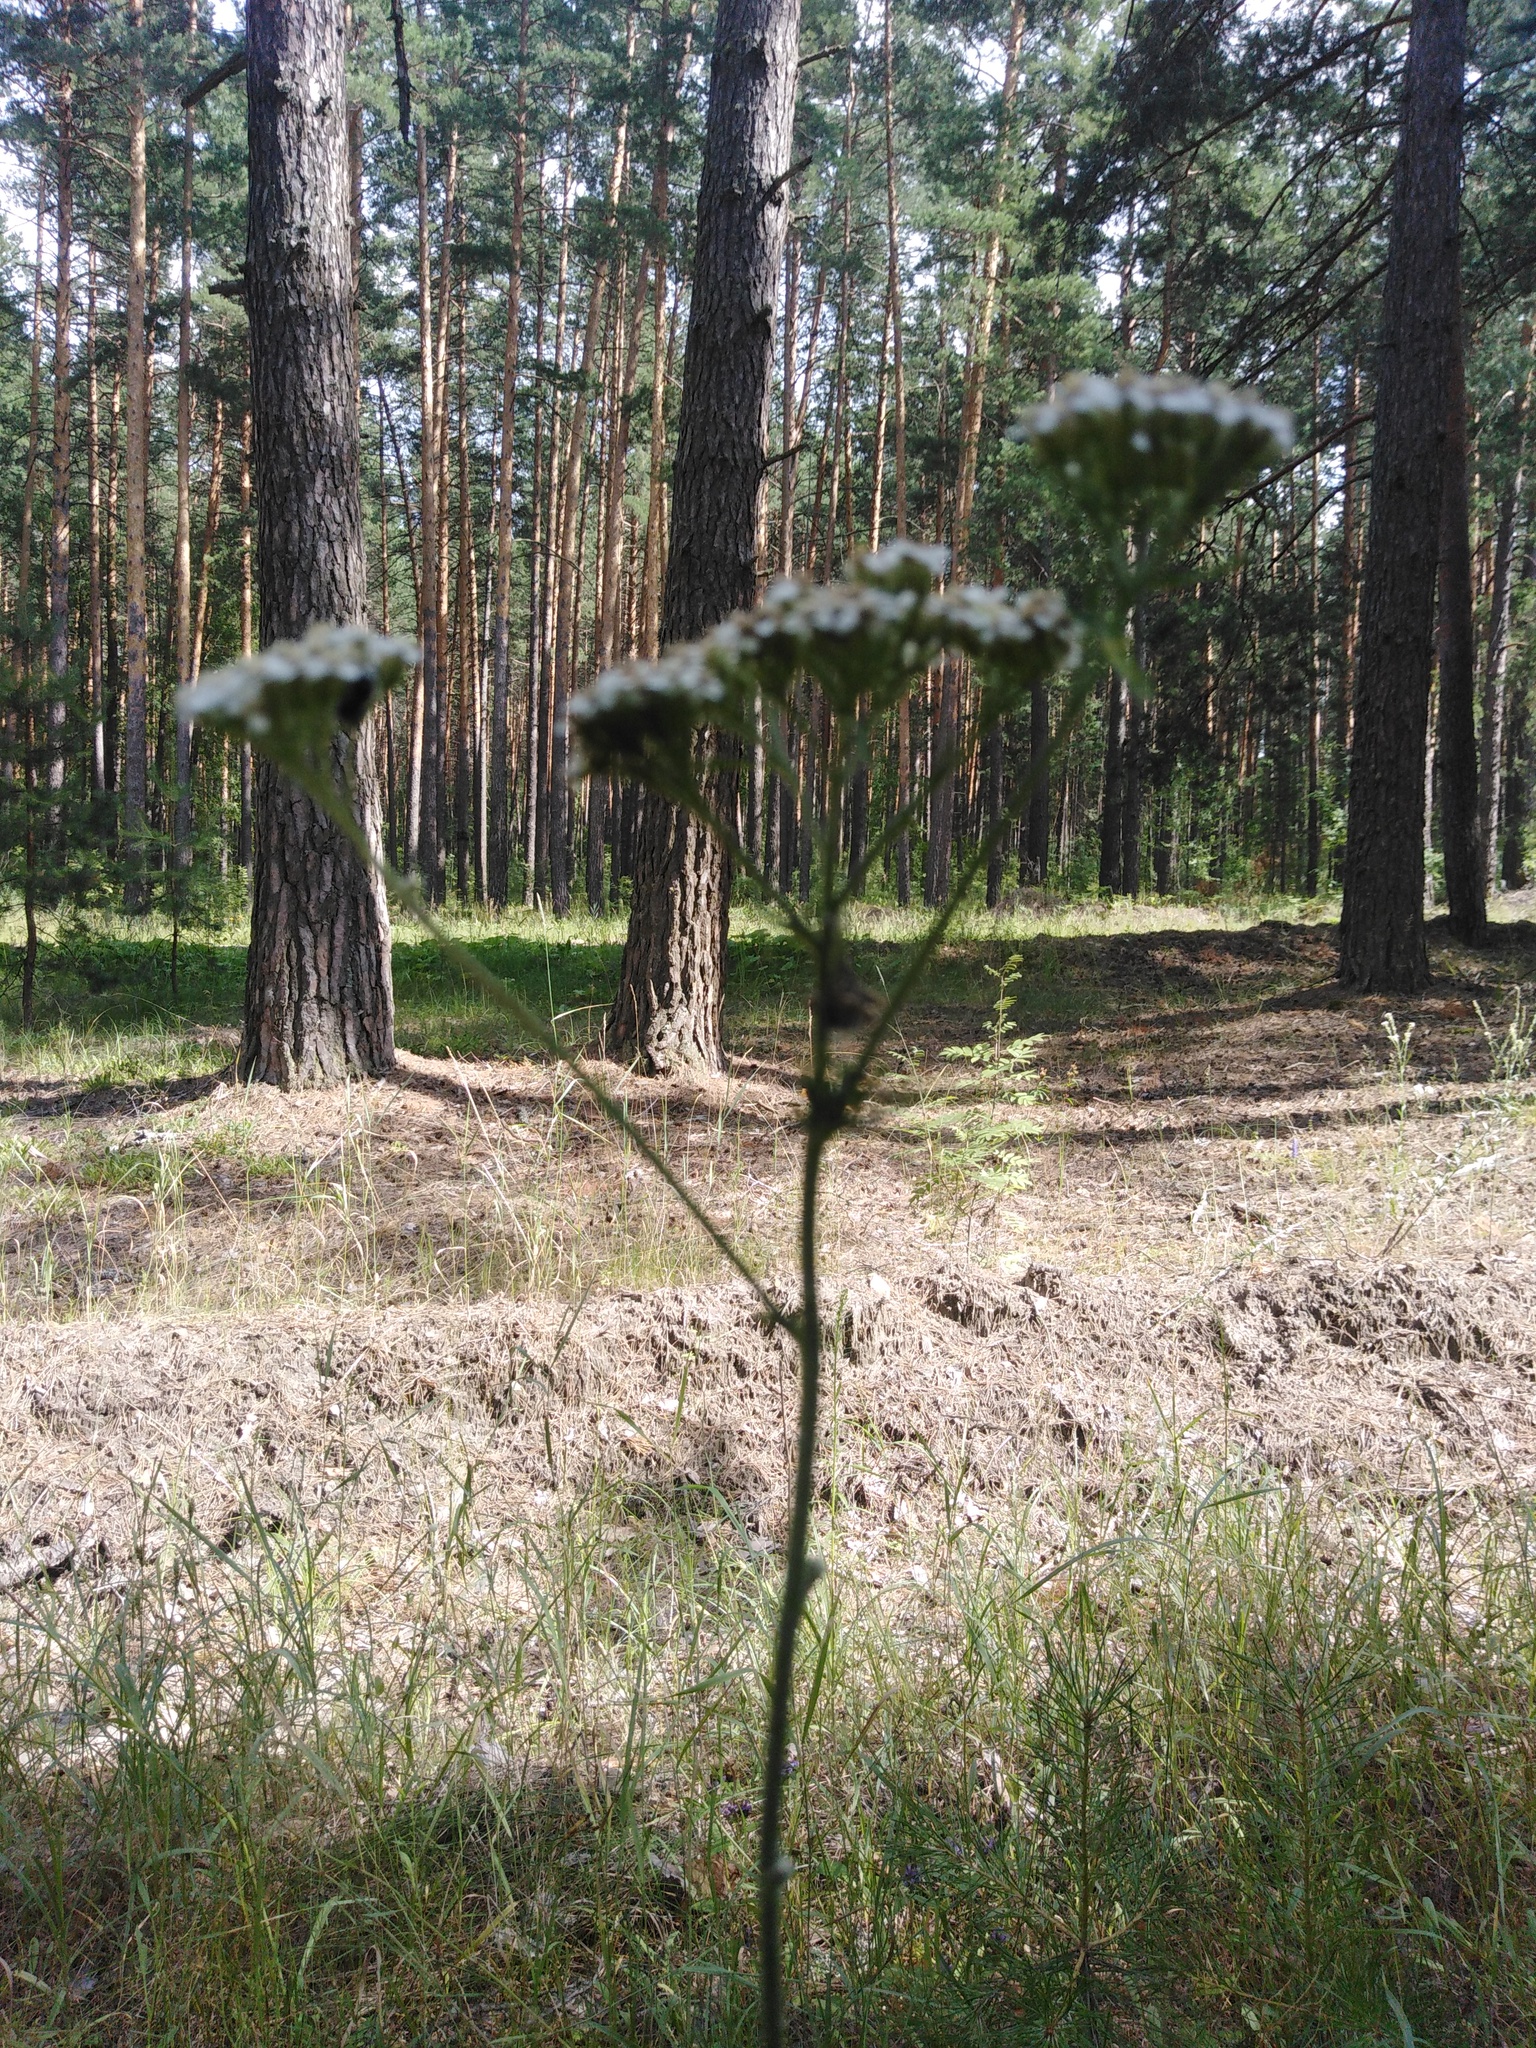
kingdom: Plantae
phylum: Tracheophyta
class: Magnoliopsida
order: Asterales
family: Asteraceae
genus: Achillea
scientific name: Achillea millefolium
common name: Yarrow
